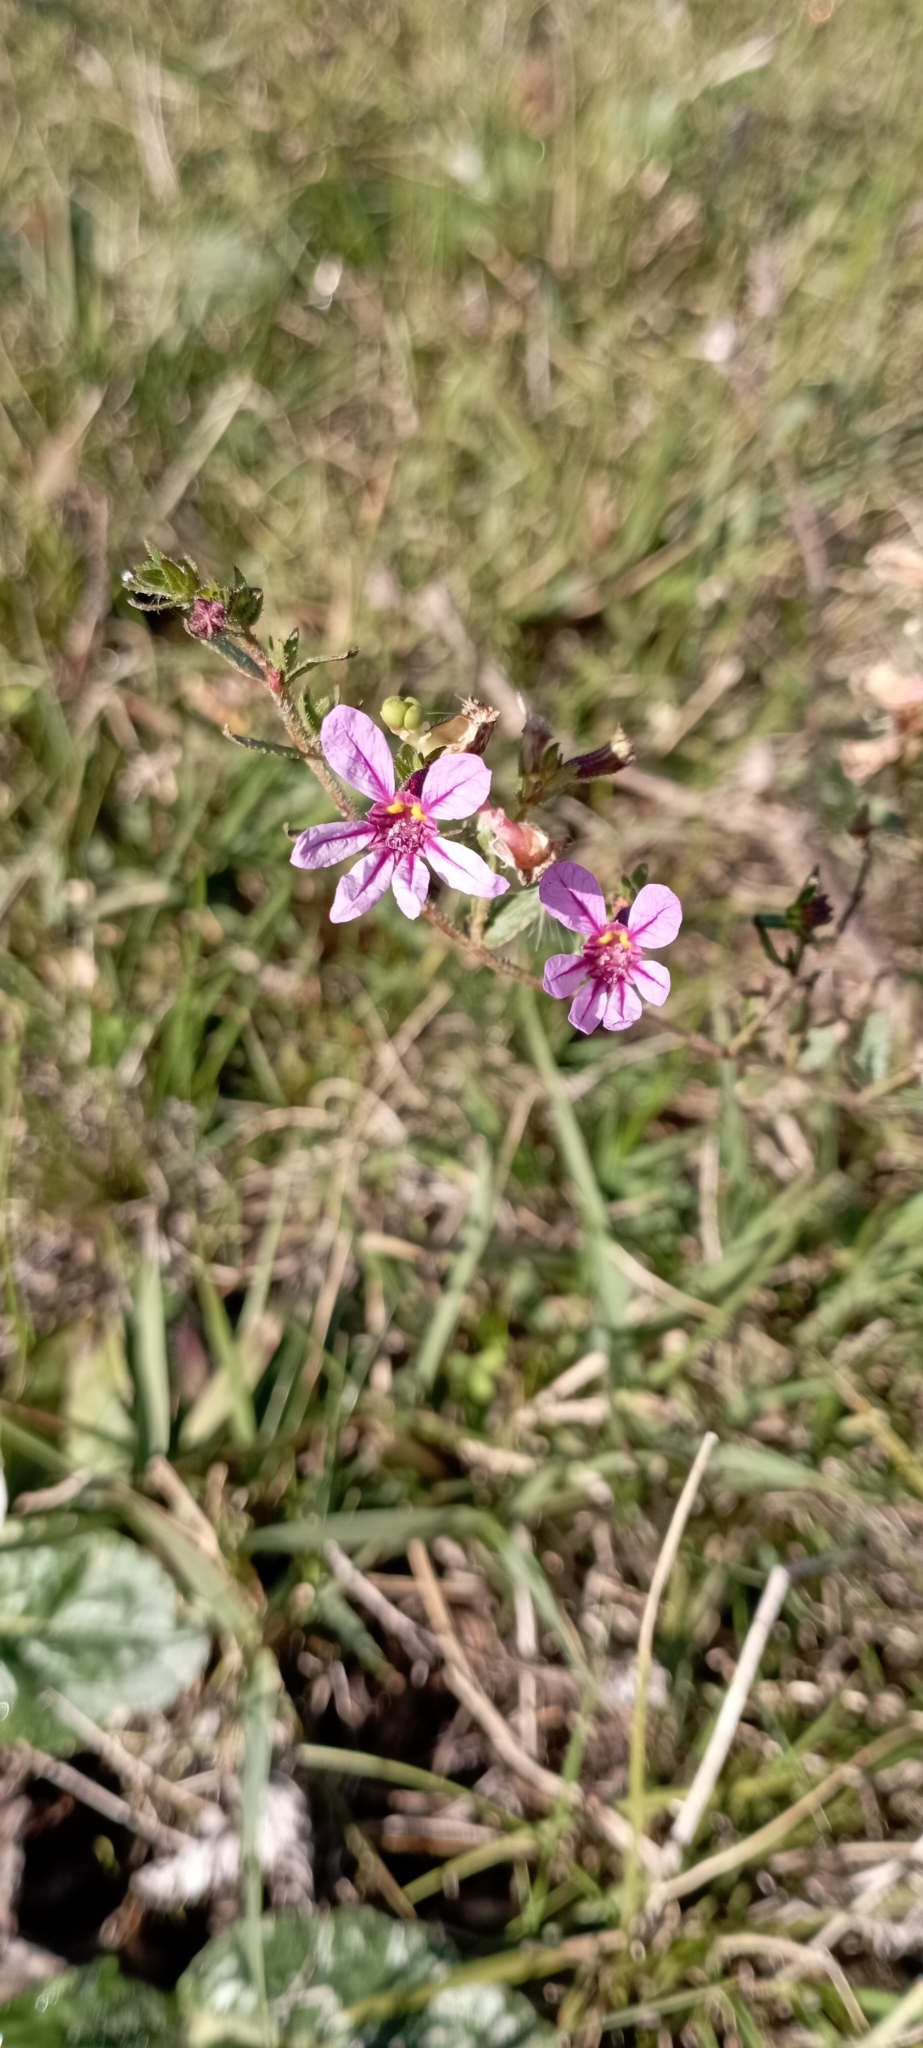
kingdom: Plantae
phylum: Tracheophyta
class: Magnoliopsida
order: Myrtales
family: Lythraceae
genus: Cuphea
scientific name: Cuphea glutinosa
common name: Sticky waxweed
